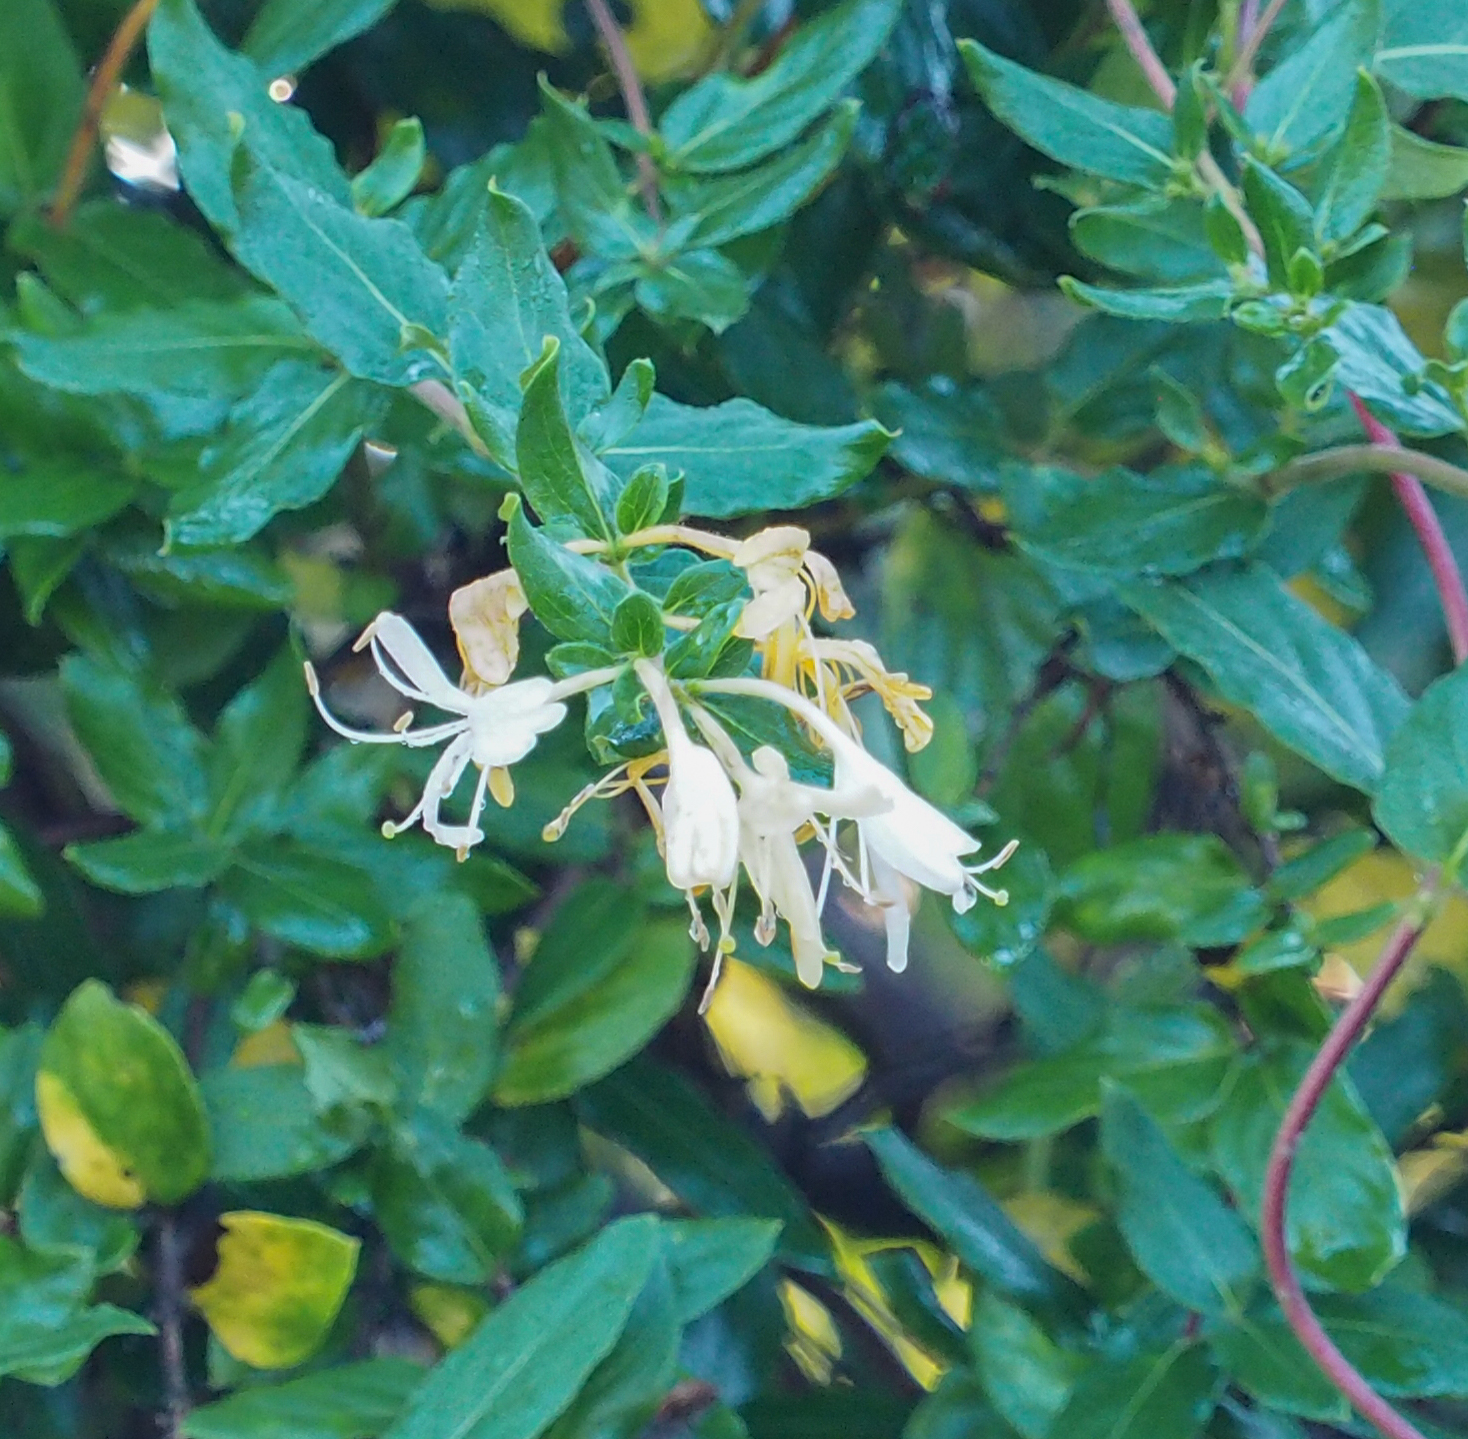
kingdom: Plantae
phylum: Tracheophyta
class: Magnoliopsida
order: Dipsacales
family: Caprifoliaceae
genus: Lonicera
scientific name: Lonicera japonica
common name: Japanese honeysuckle
